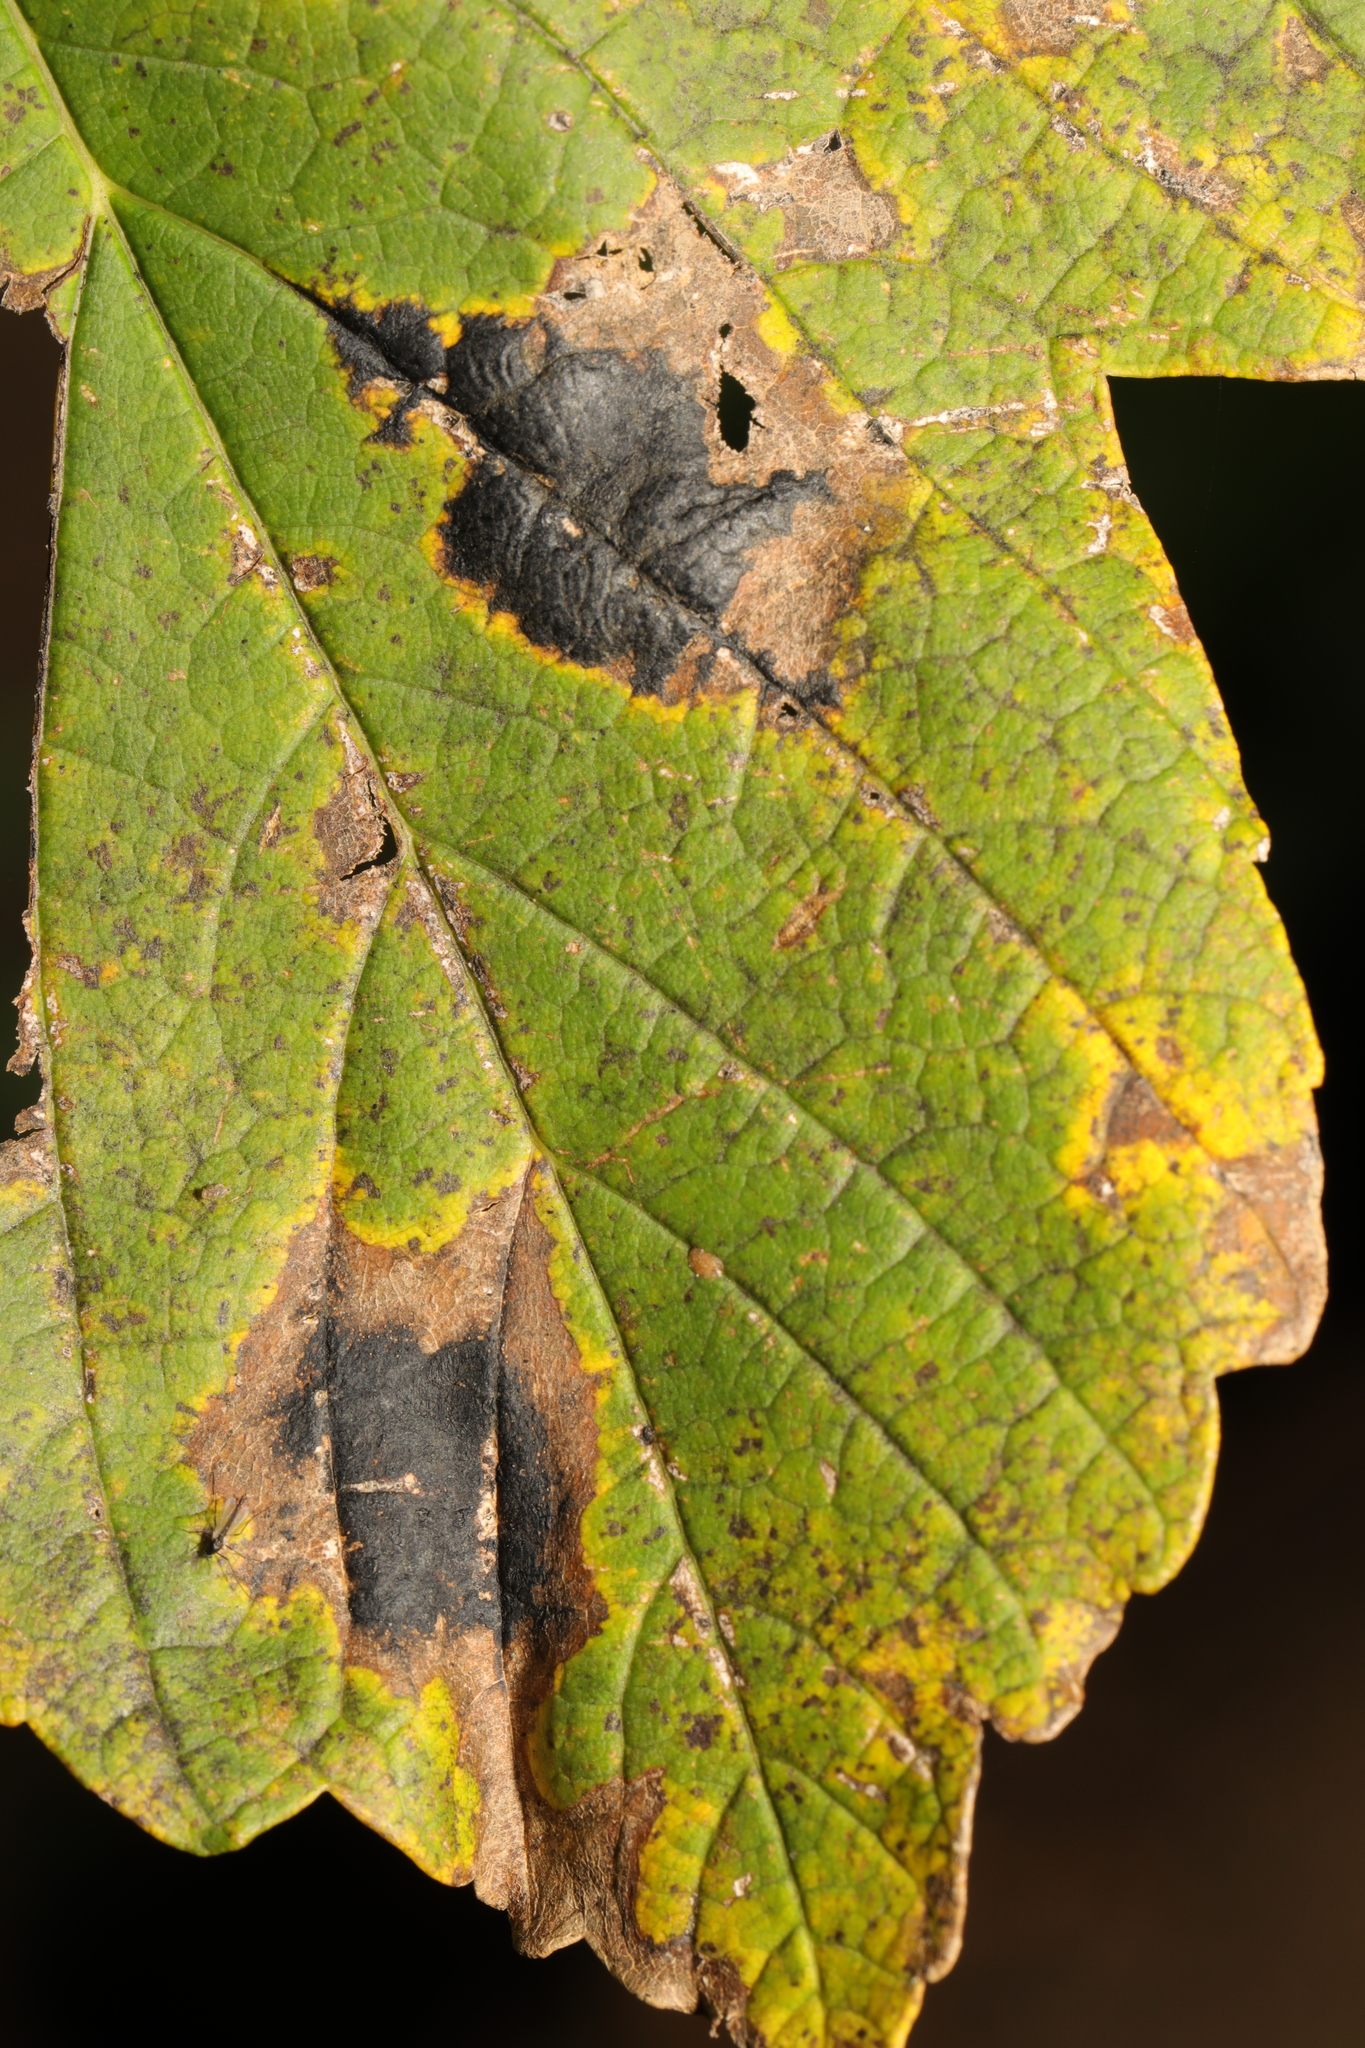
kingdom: Fungi
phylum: Ascomycota
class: Leotiomycetes
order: Rhytismatales
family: Rhytismataceae
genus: Rhytisma
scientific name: Rhytisma acerinum
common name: European tar spot
